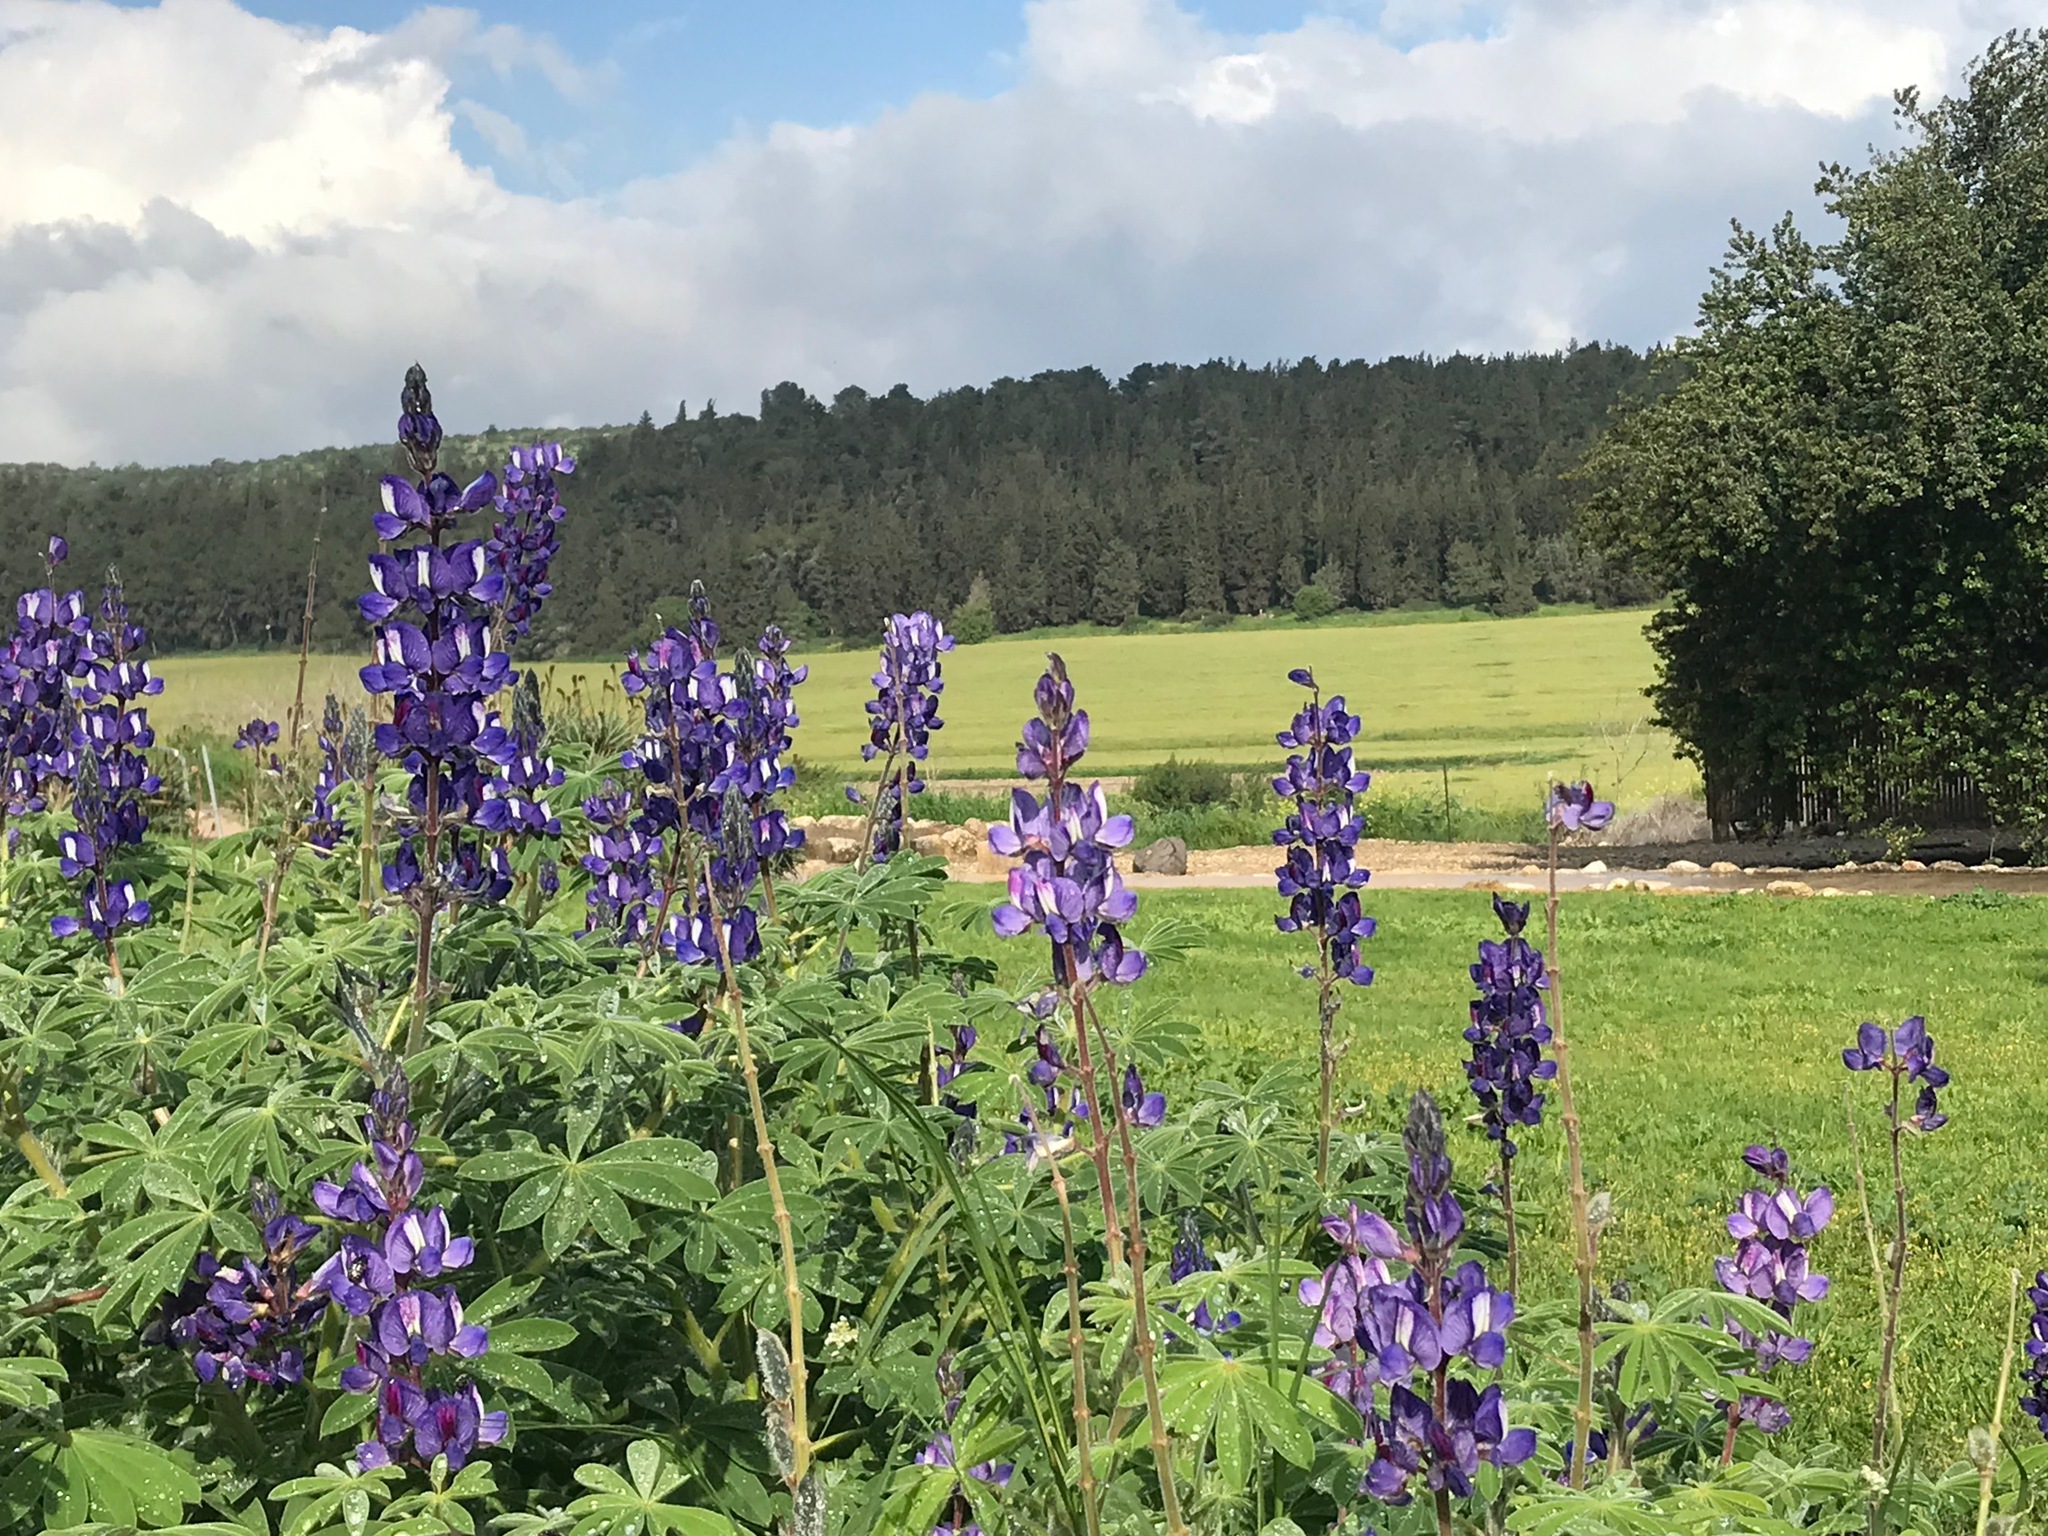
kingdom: Plantae
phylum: Tracheophyta
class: Magnoliopsida
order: Fabales
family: Fabaceae
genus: Lupinus
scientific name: Lupinus pilosus
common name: Blue lupine
